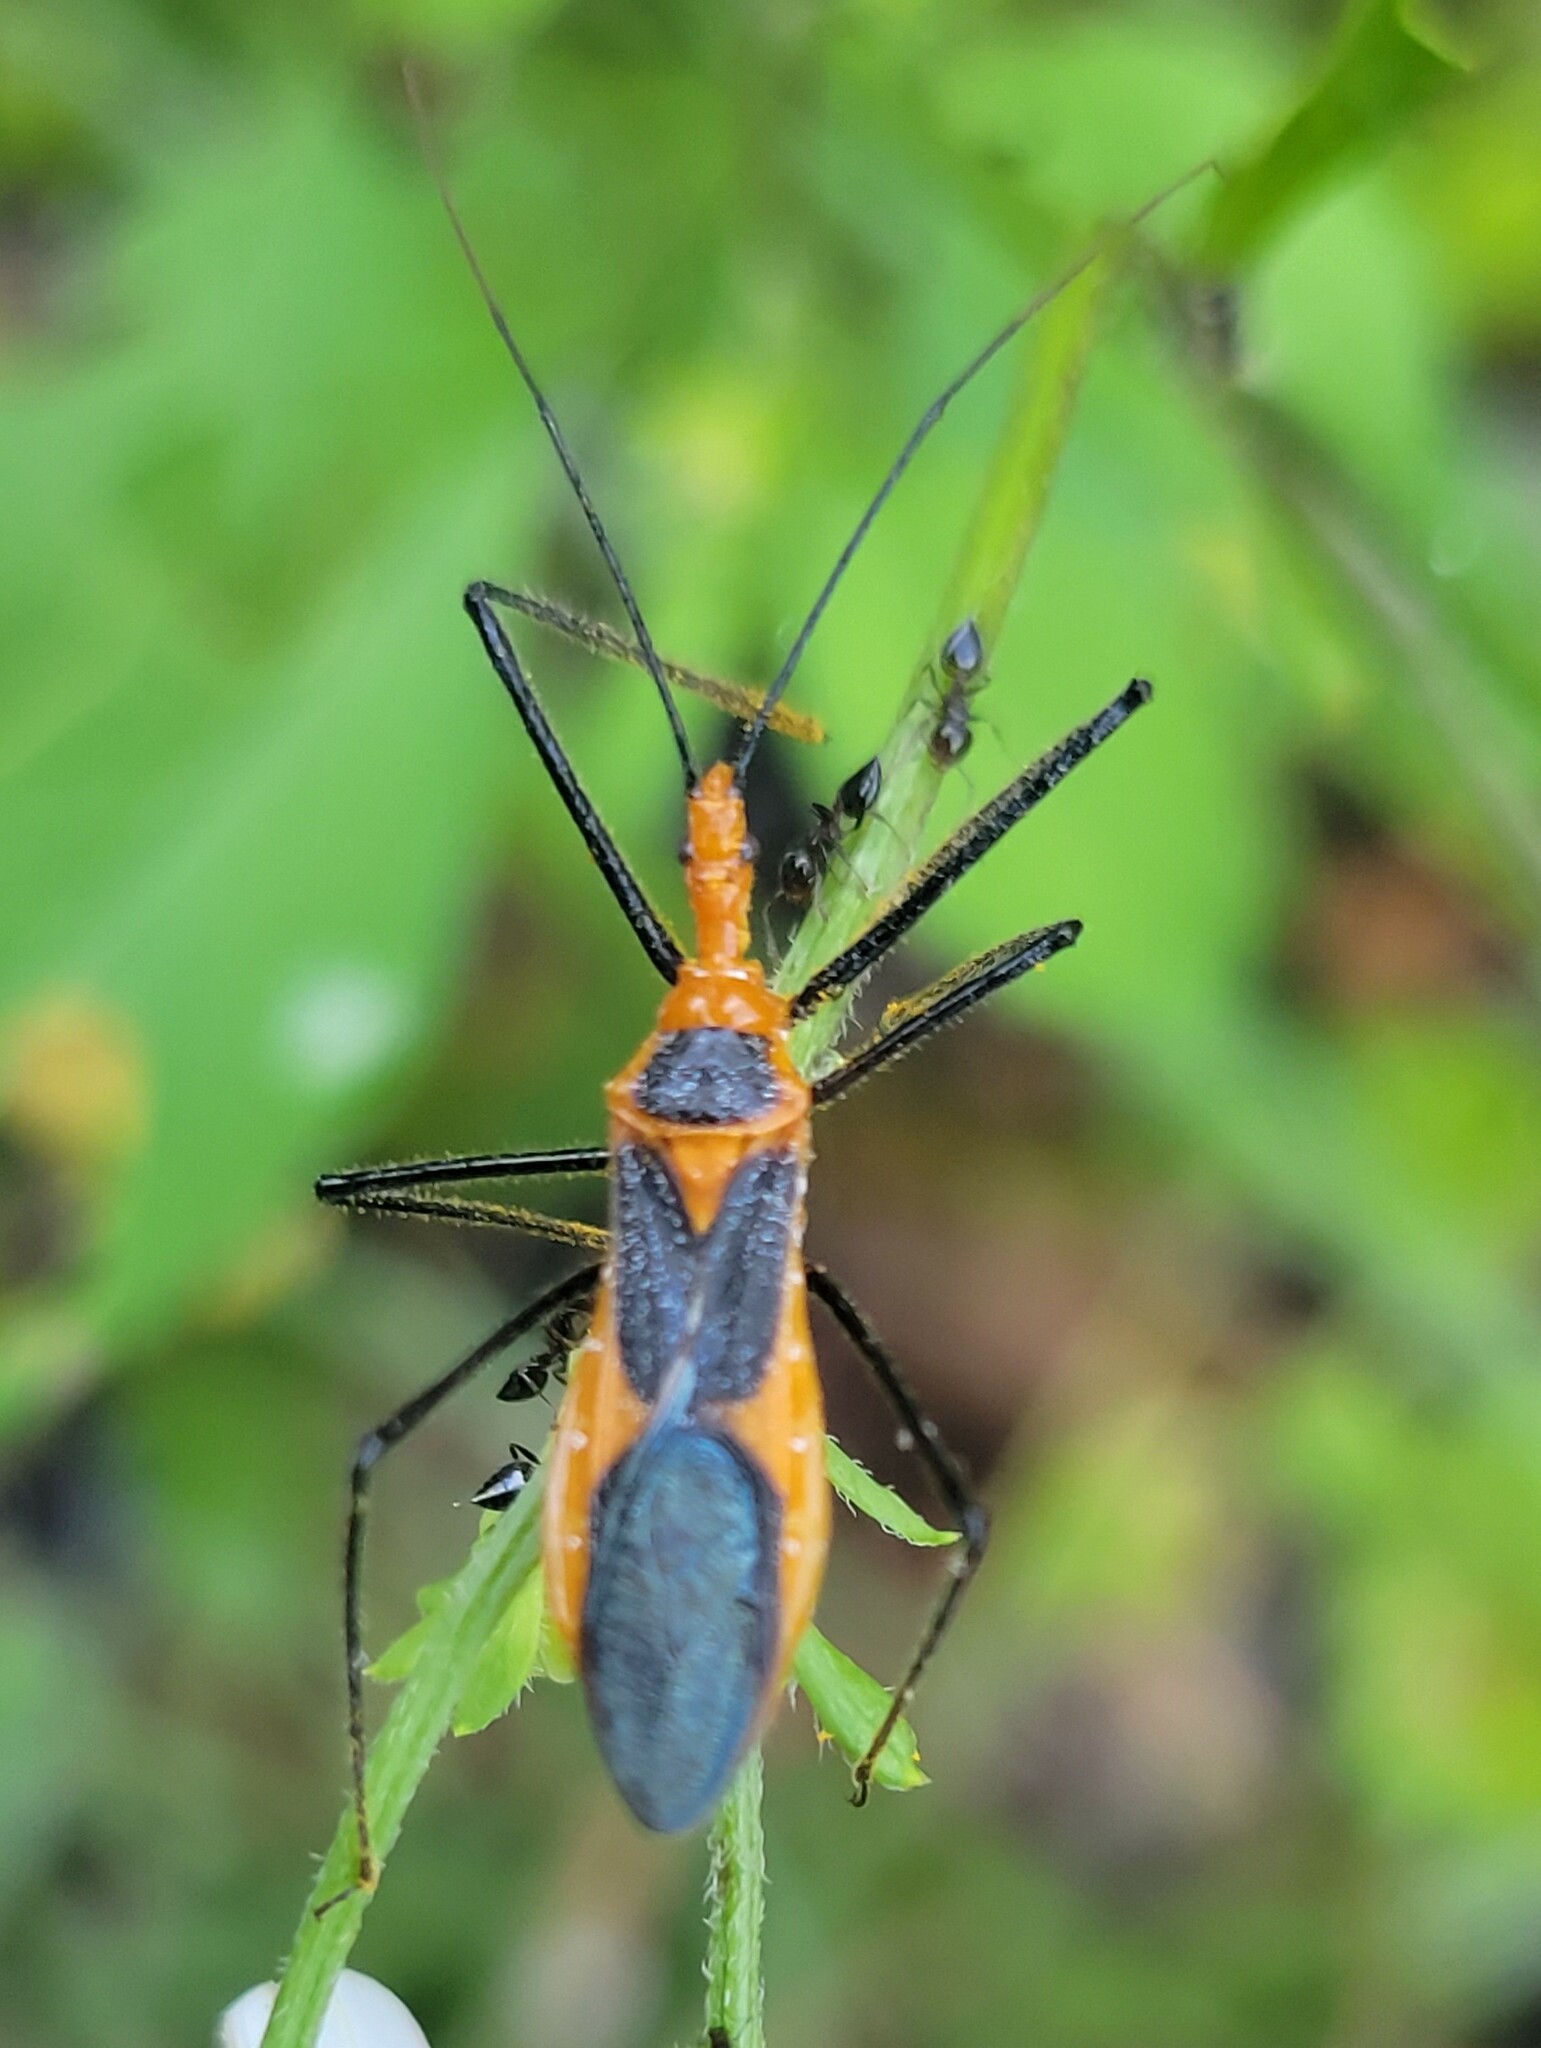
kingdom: Animalia
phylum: Arthropoda
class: Insecta
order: Hemiptera
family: Reduviidae
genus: Zelus
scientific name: Zelus longipes
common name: Milkweed assassin bug
